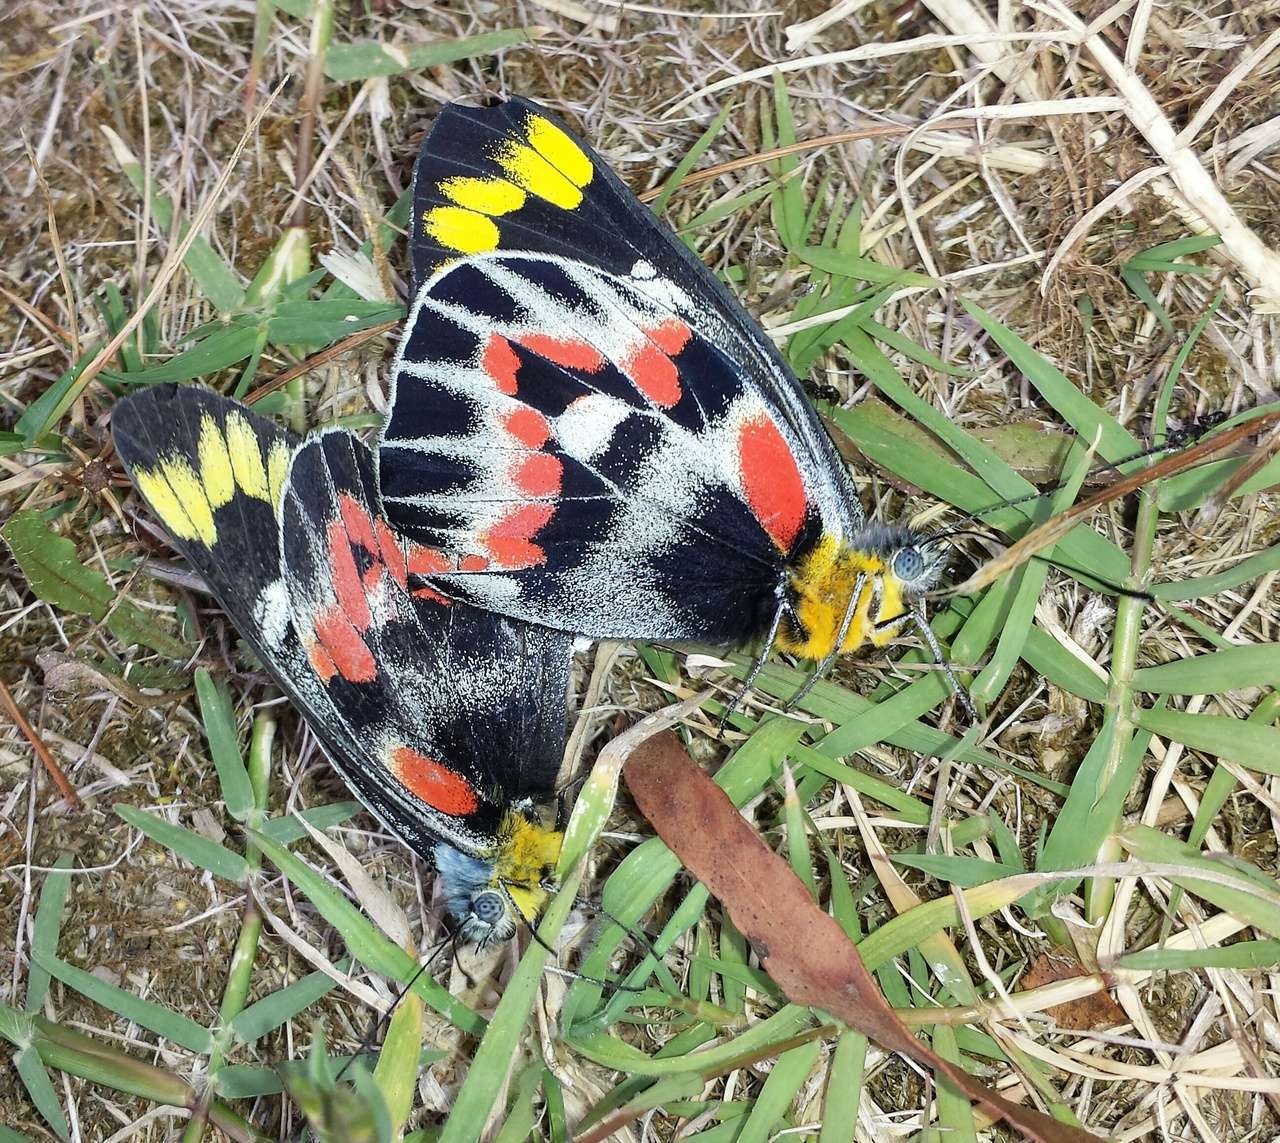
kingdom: Animalia
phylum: Arthropoda
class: Insecta
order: Lepidoptera
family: Pieridae
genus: Delias
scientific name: Delias harpalyce
